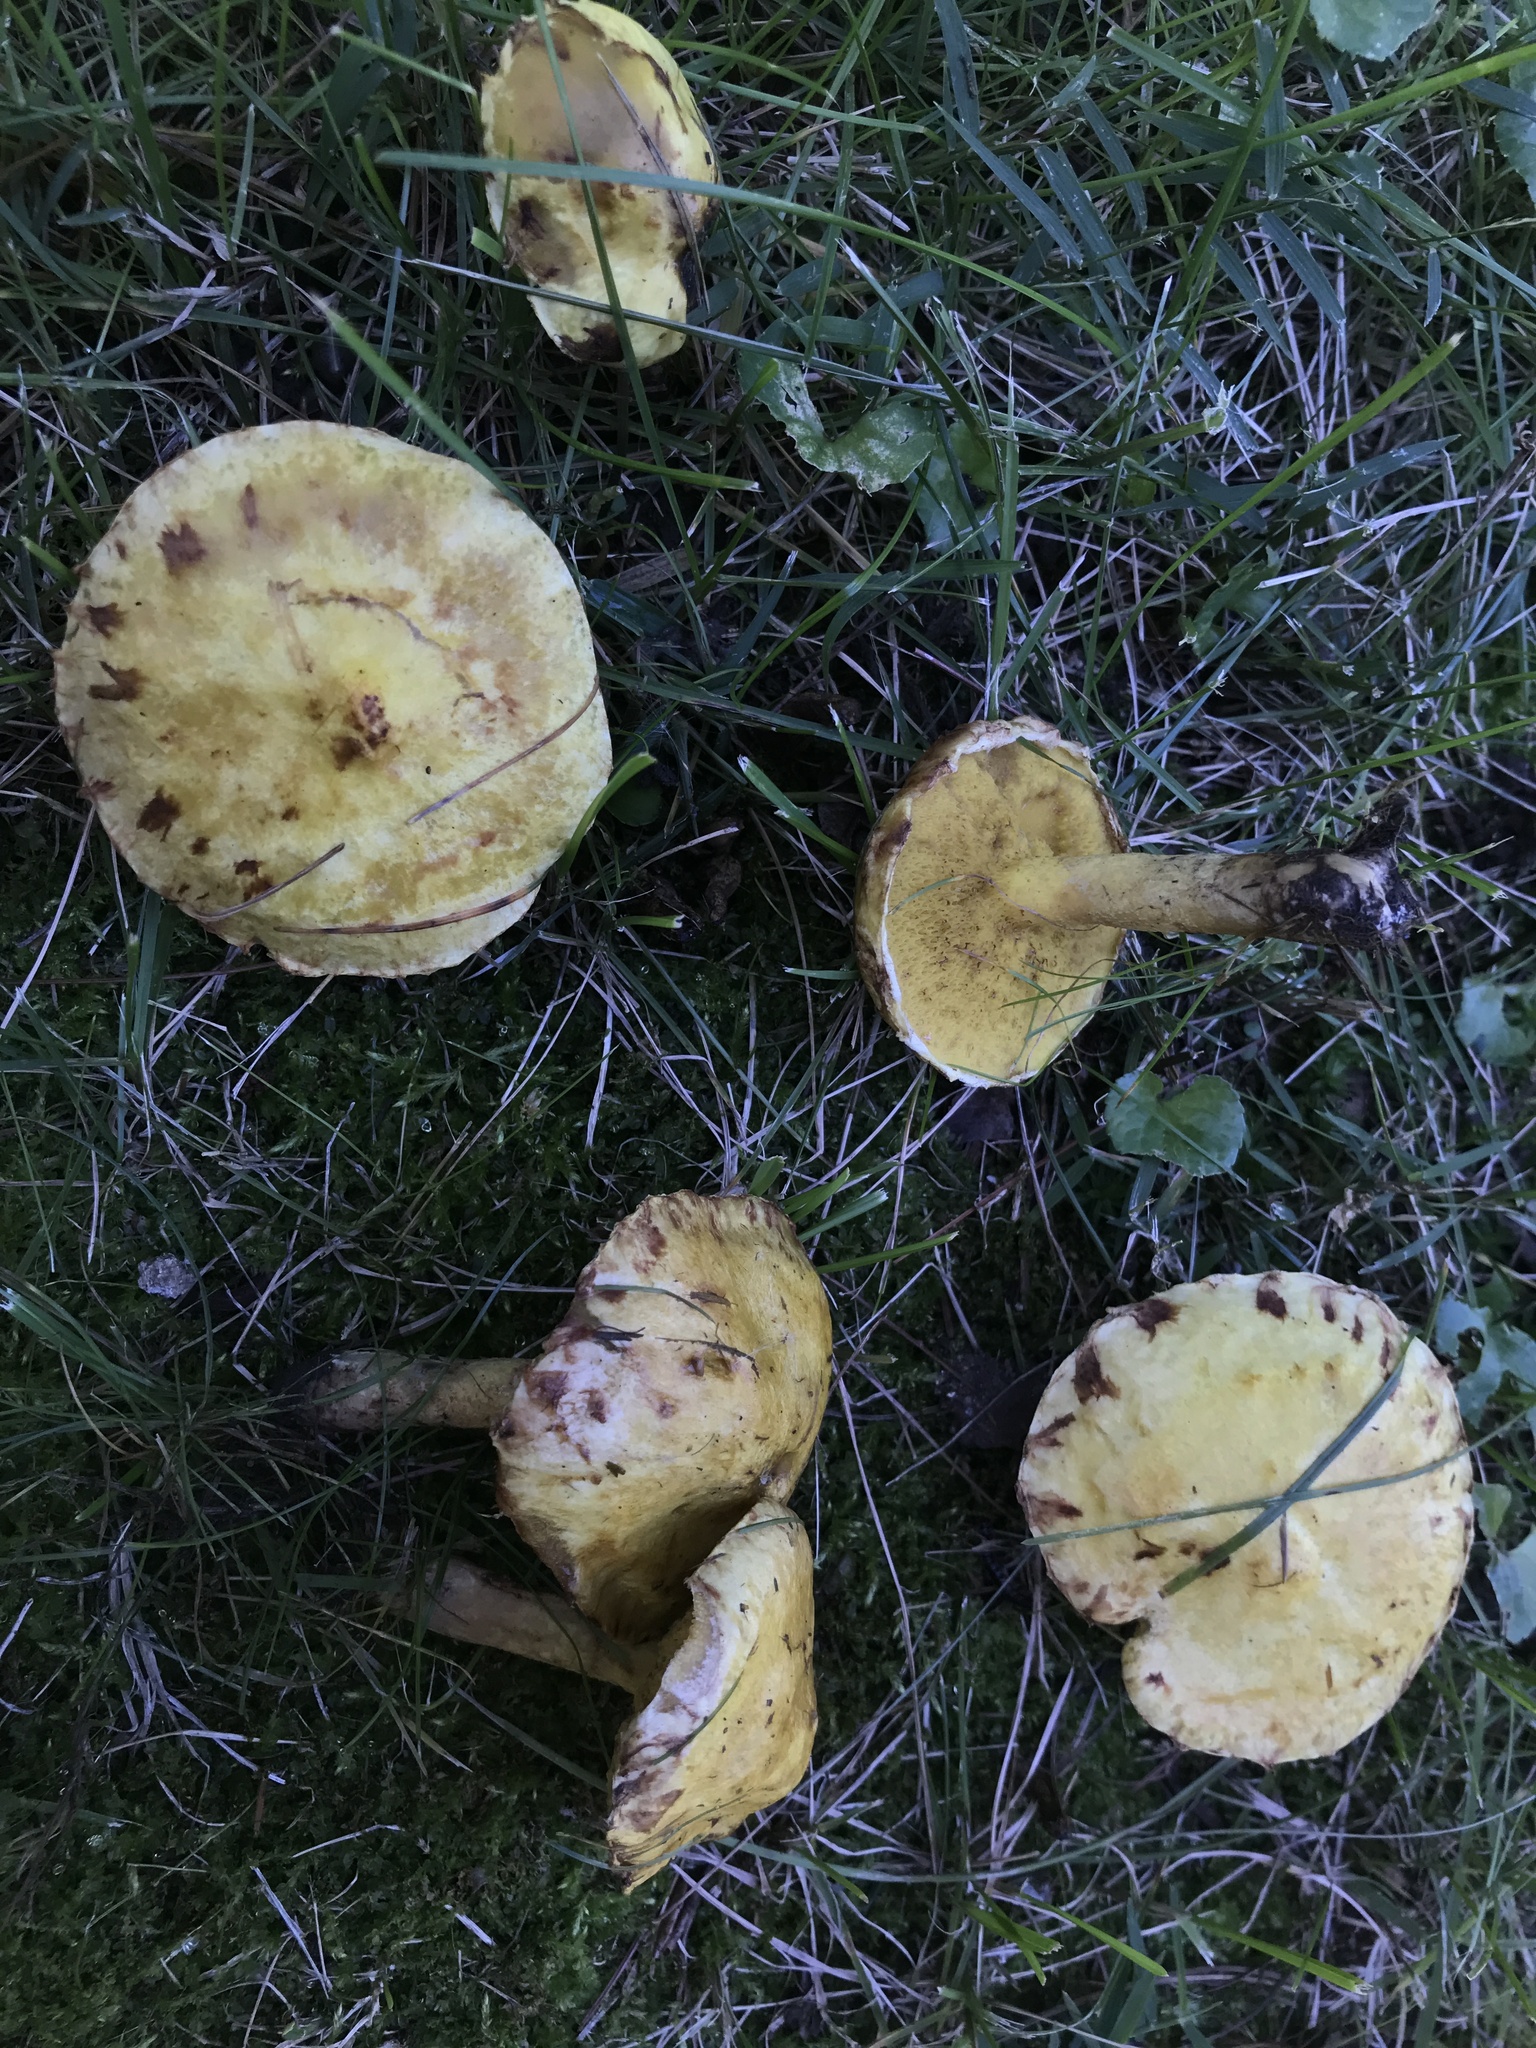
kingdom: Fungi
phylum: Basidiomycota
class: Agaricomycetes
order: Boletales
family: Suillaceae
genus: Suillus
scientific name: Suillus americanus
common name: Chicken fat mushroom
